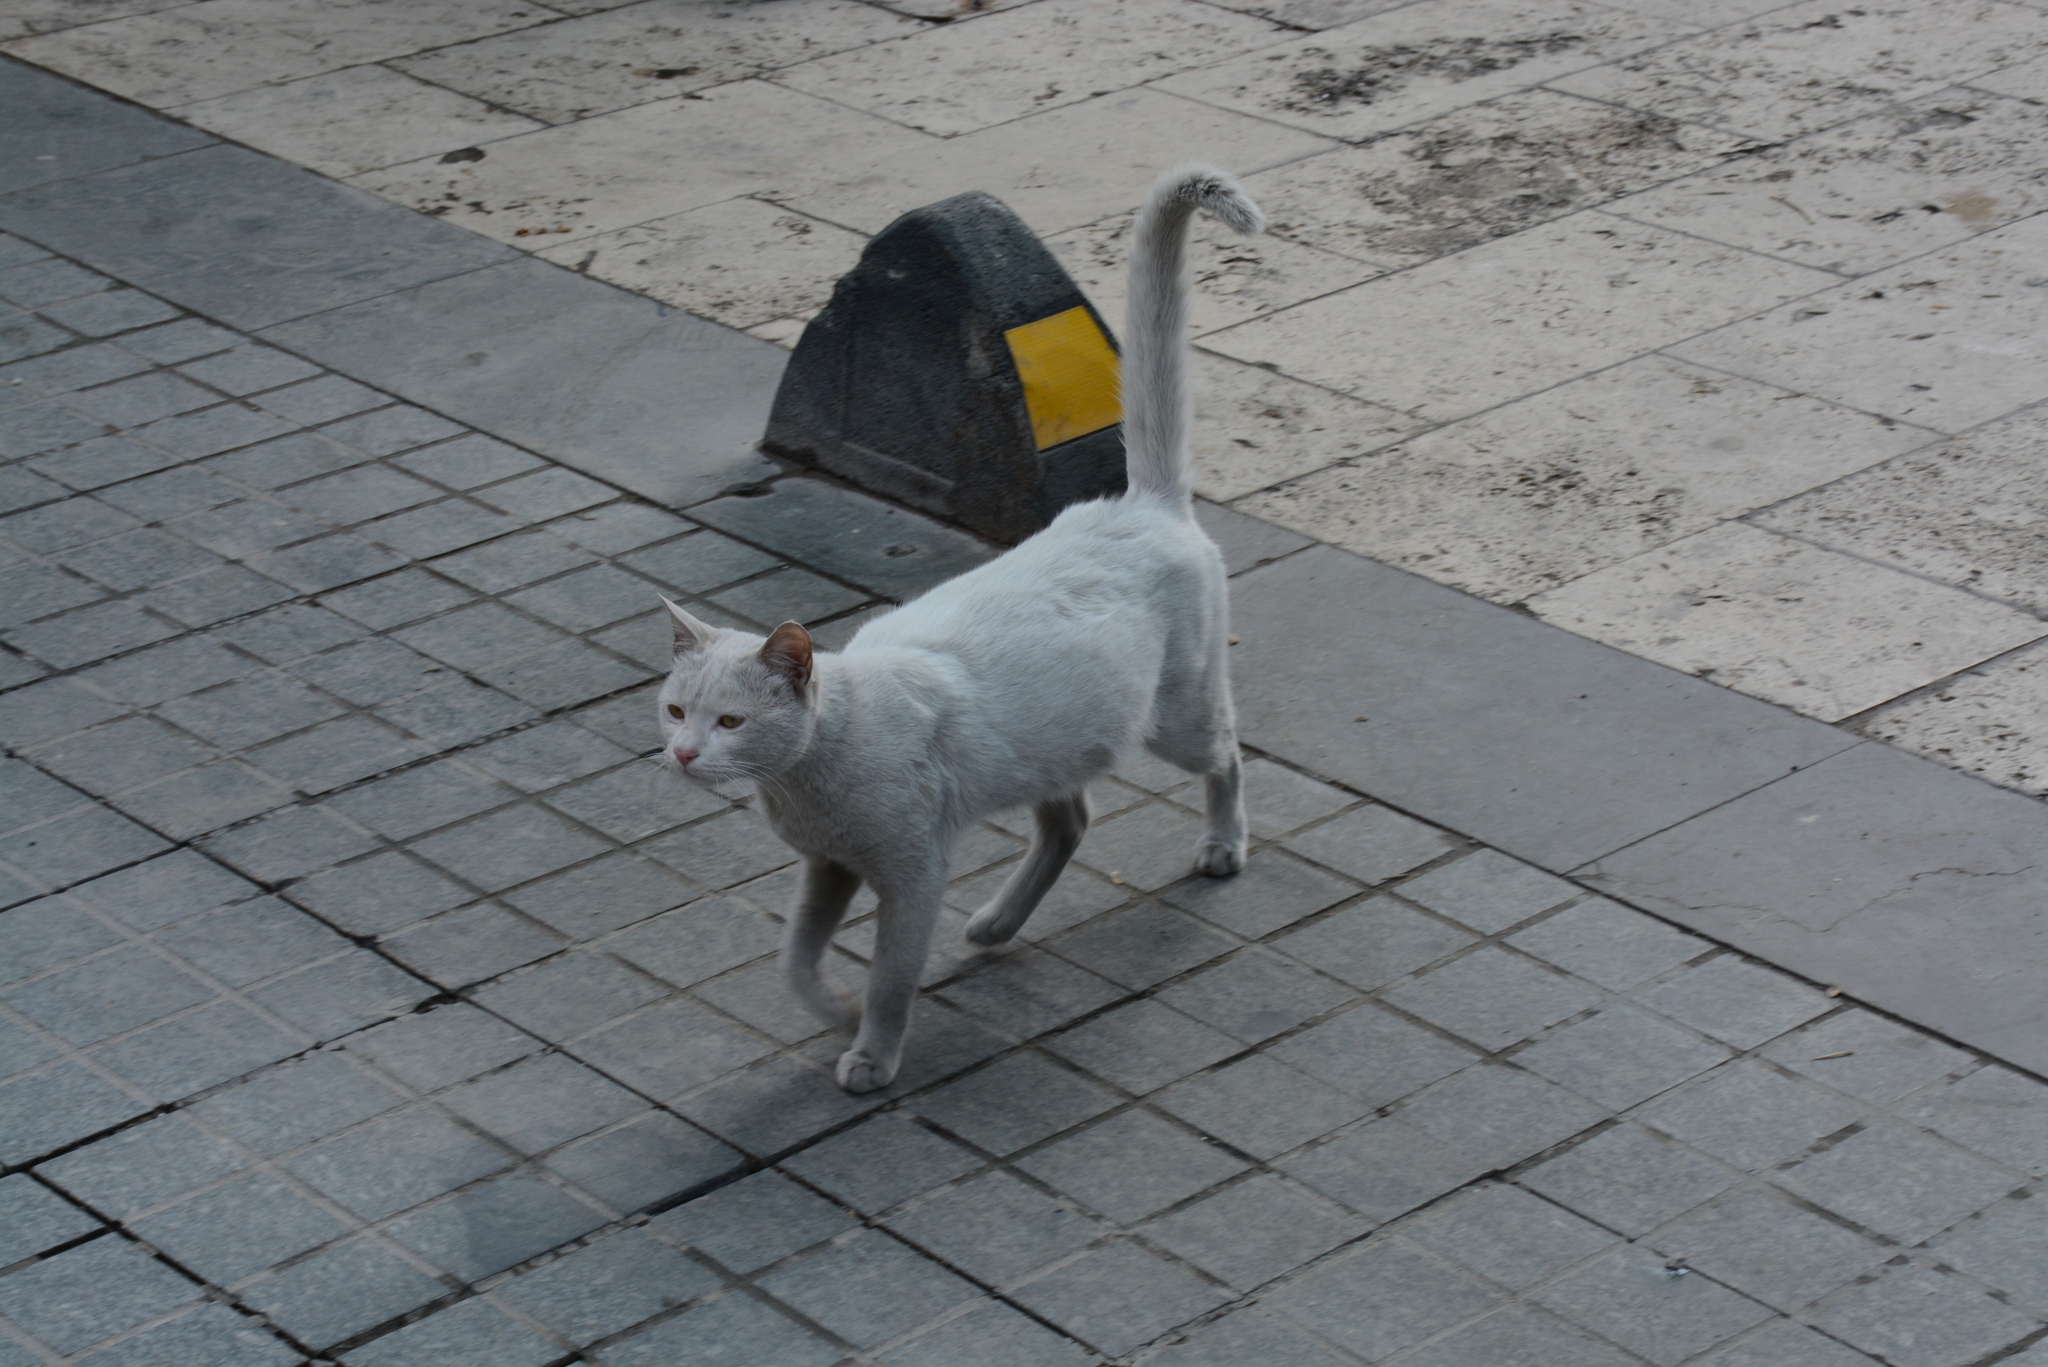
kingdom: Animalia
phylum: Chordata
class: Mammalia
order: Carnivora
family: Felidae
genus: Felis
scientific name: Felis catus
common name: Domestic cat
